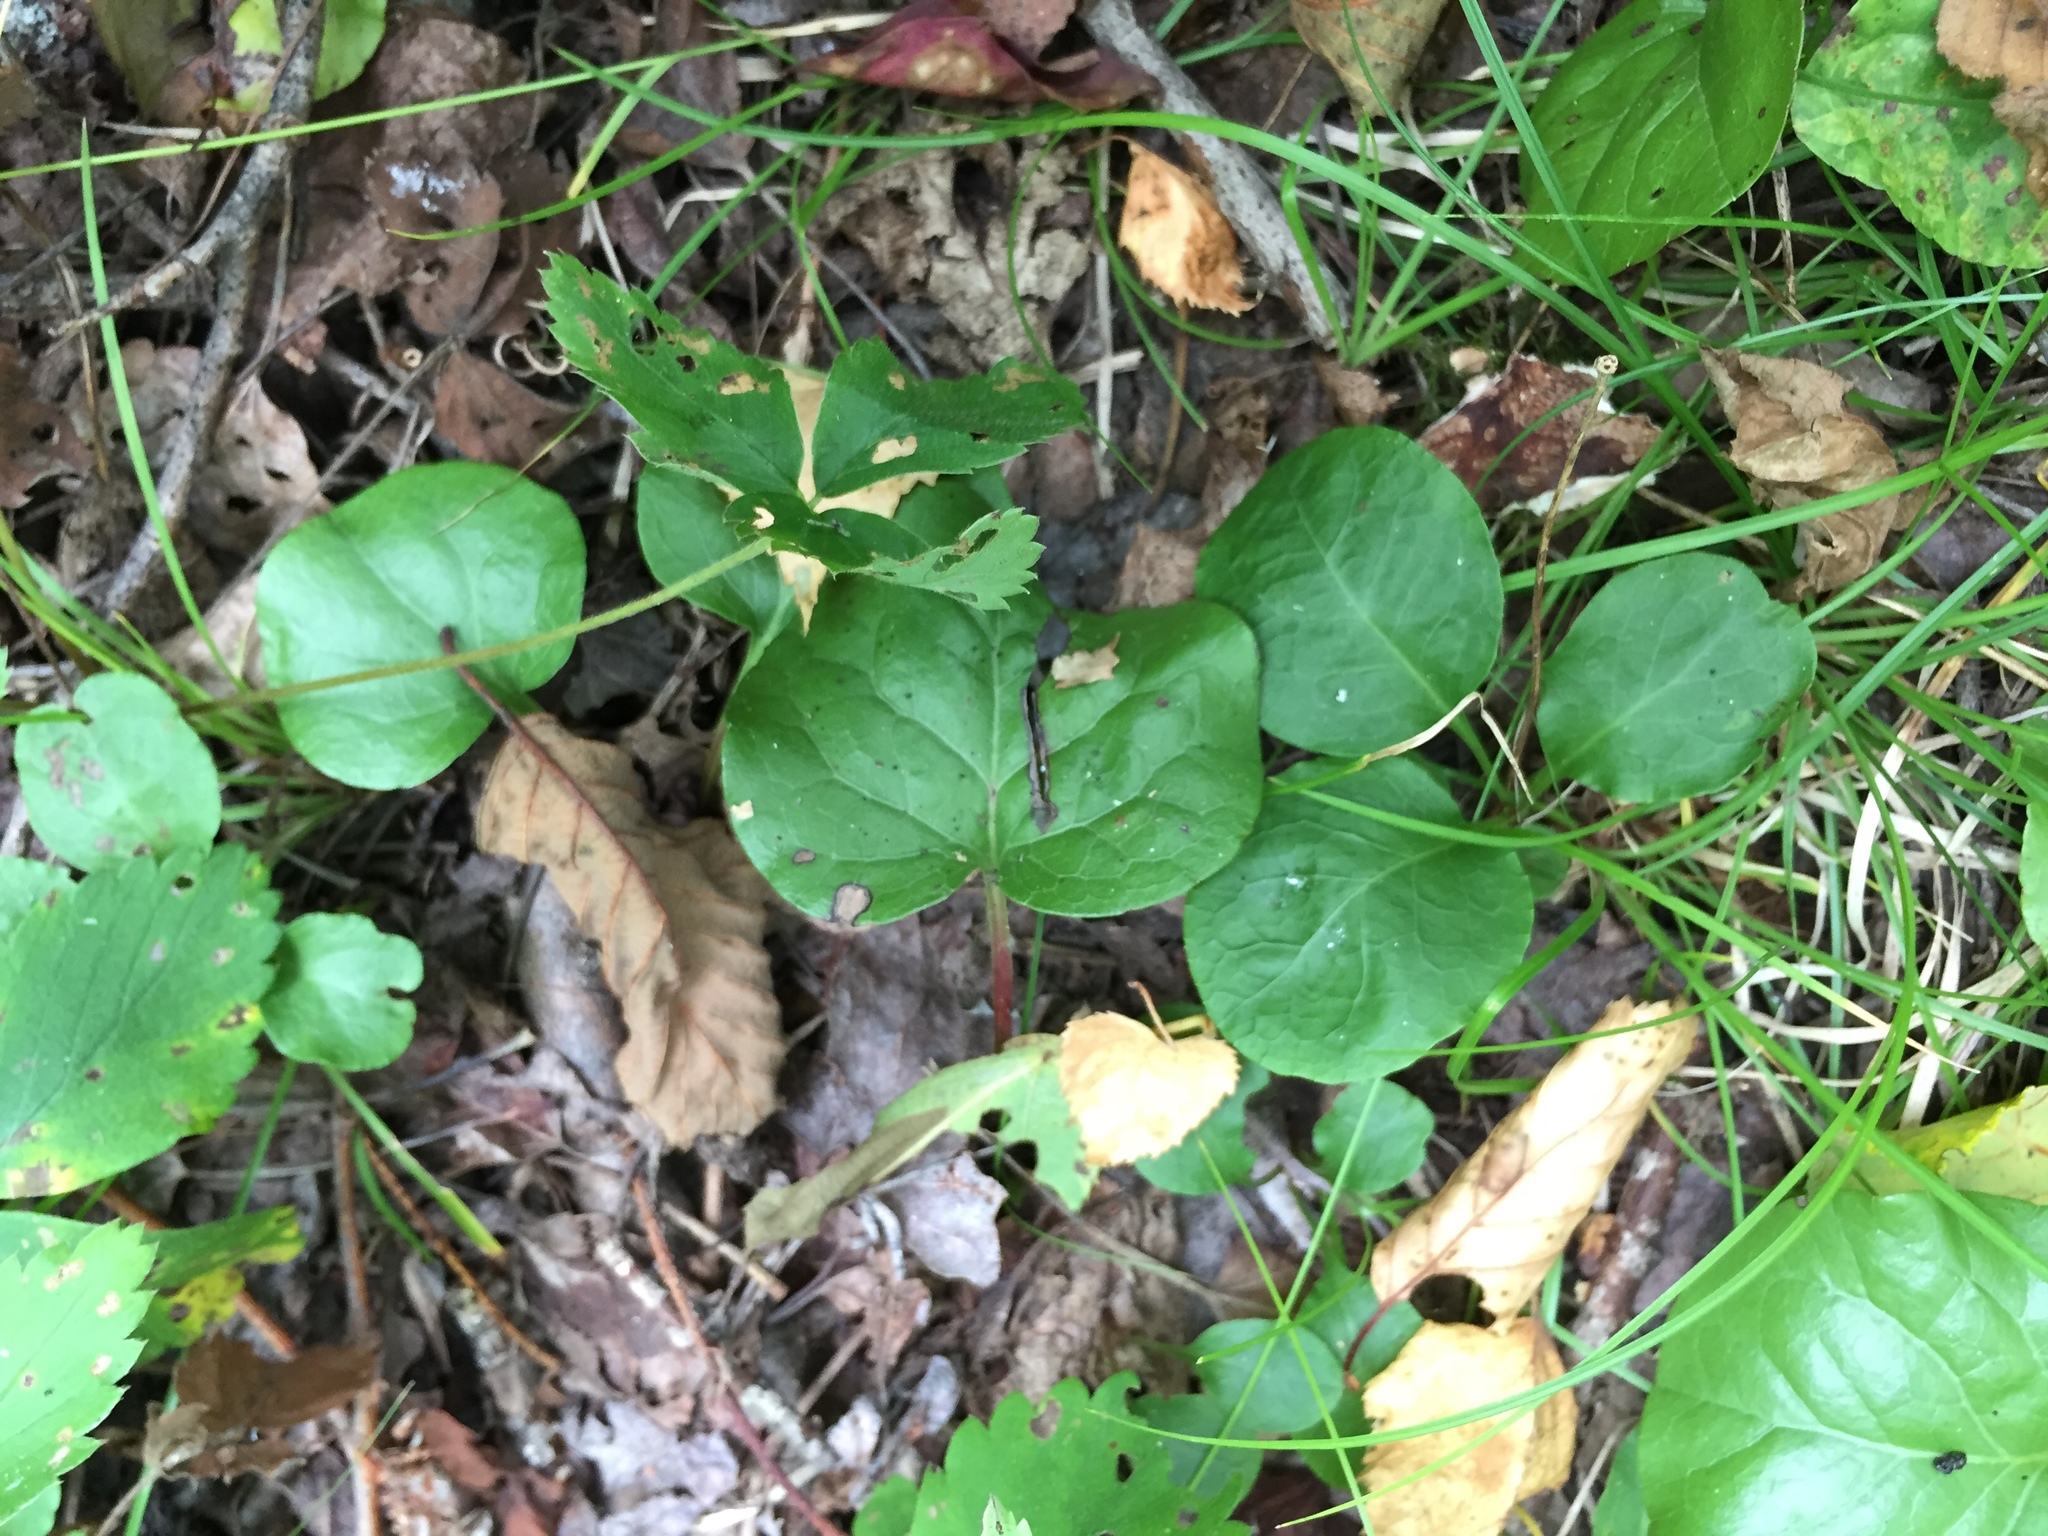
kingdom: Plantae
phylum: Tracheophyta
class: Magnoliopsida
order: Ericales
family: Ericaceae
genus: Pyrola
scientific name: Pyrola asarifolia
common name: Bog wintergreen
